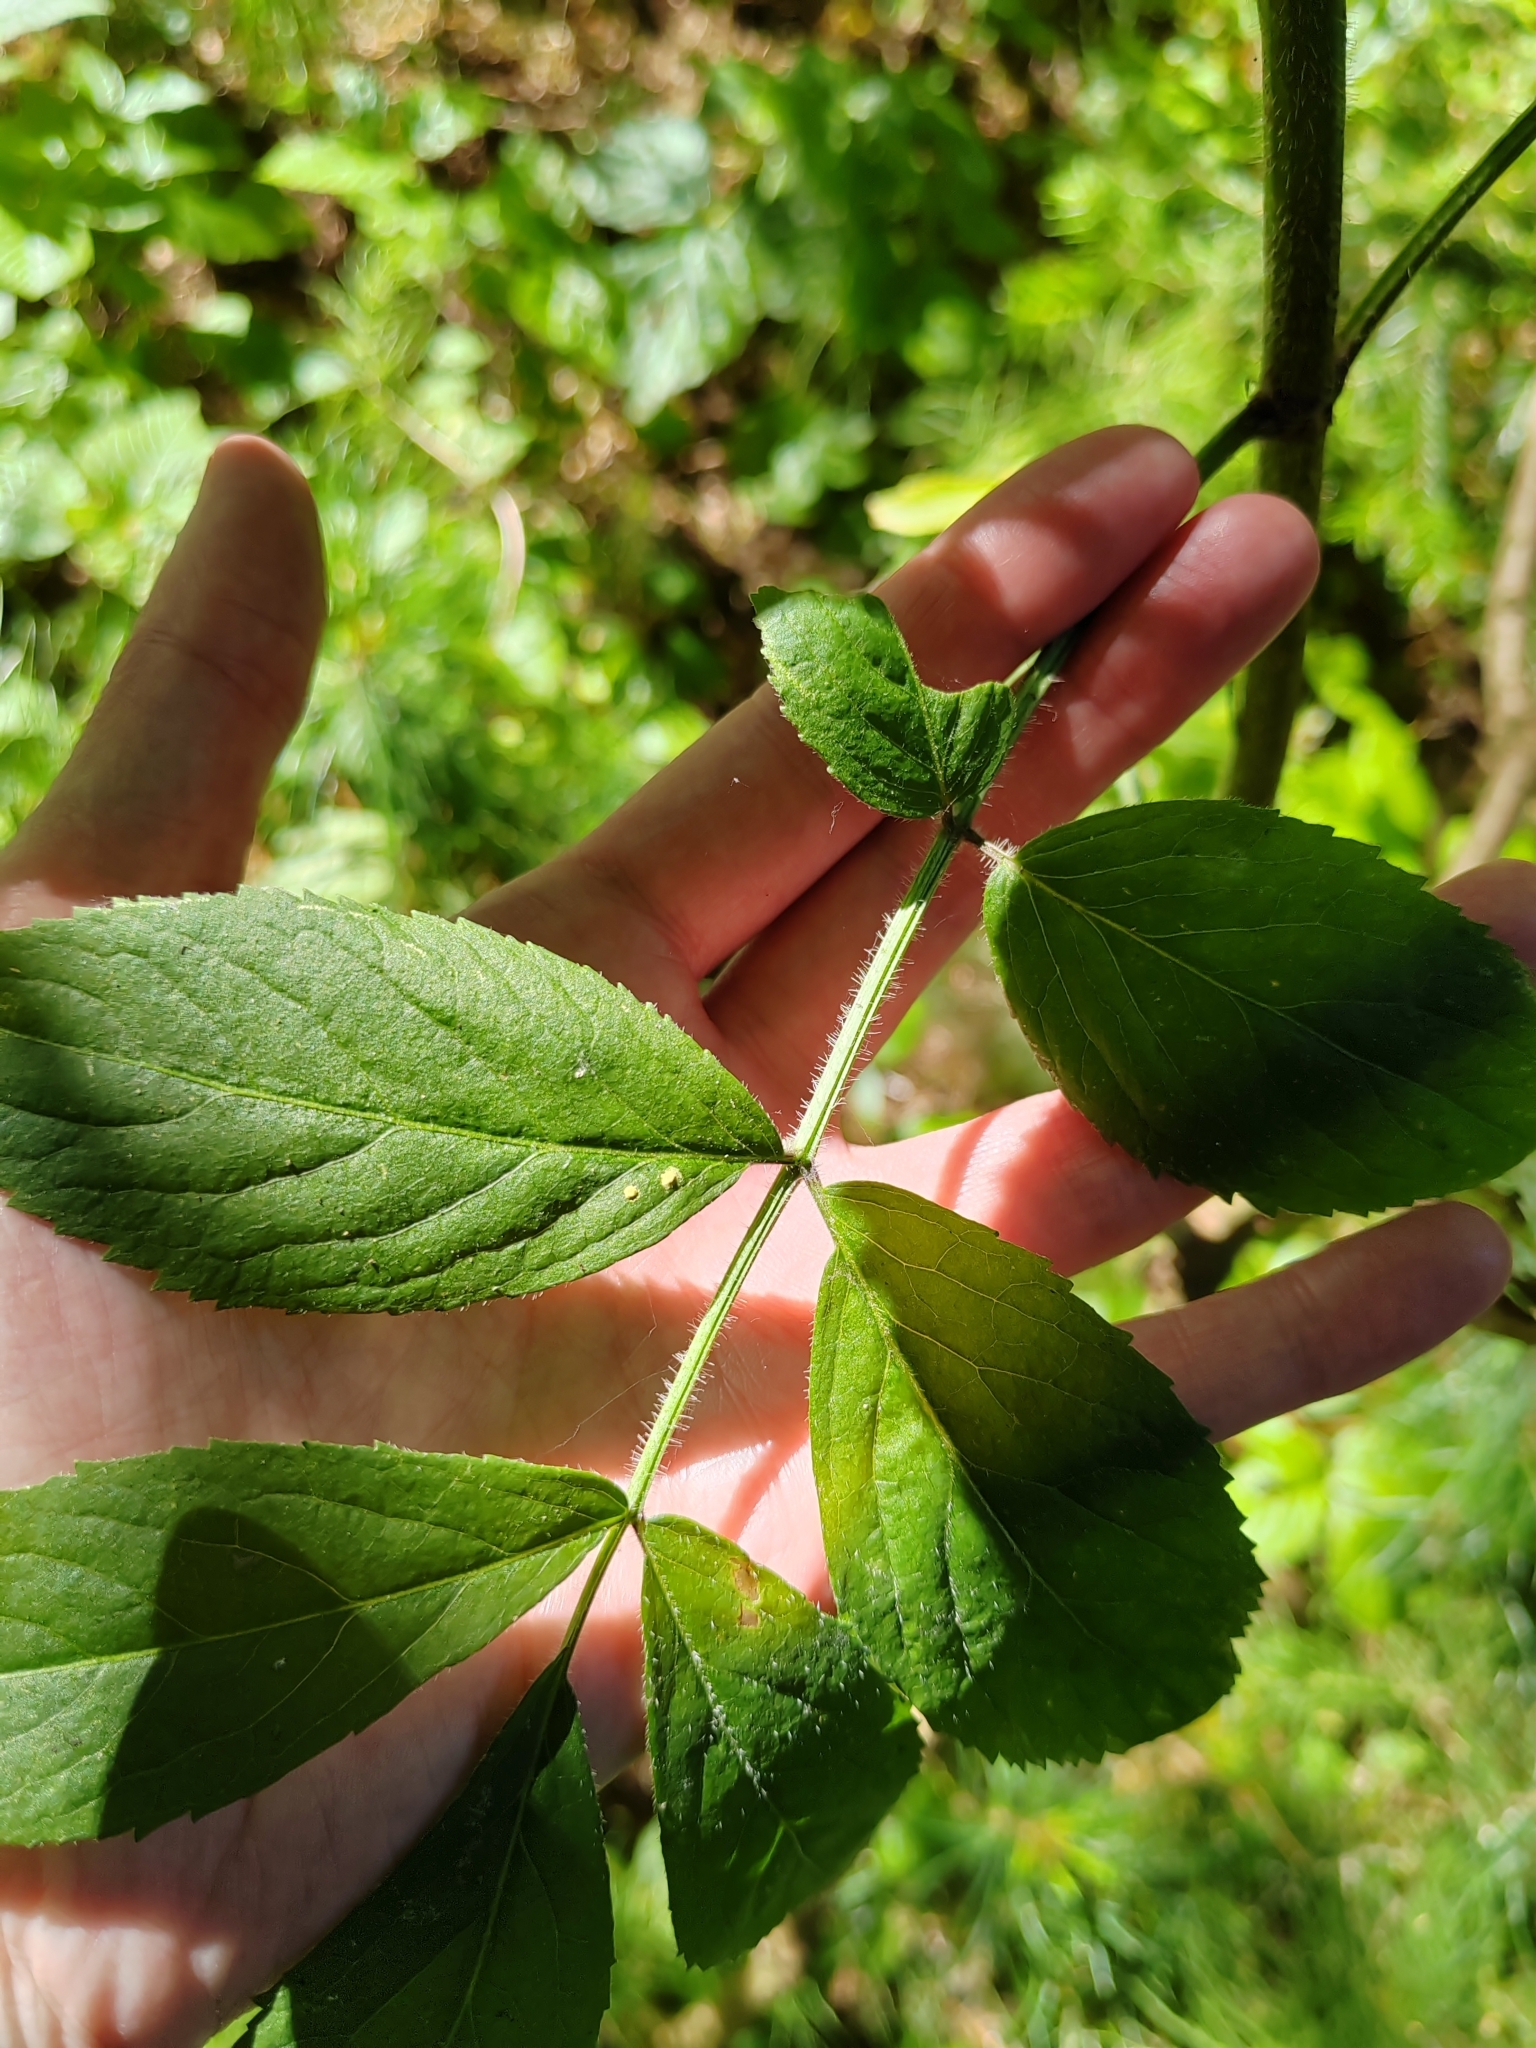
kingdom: Plantae
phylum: Tracheophyta
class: Magnoliopsida
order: Dipsacales
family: Viburnaceae
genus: Sambucus
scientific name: Sambucus sibirica
